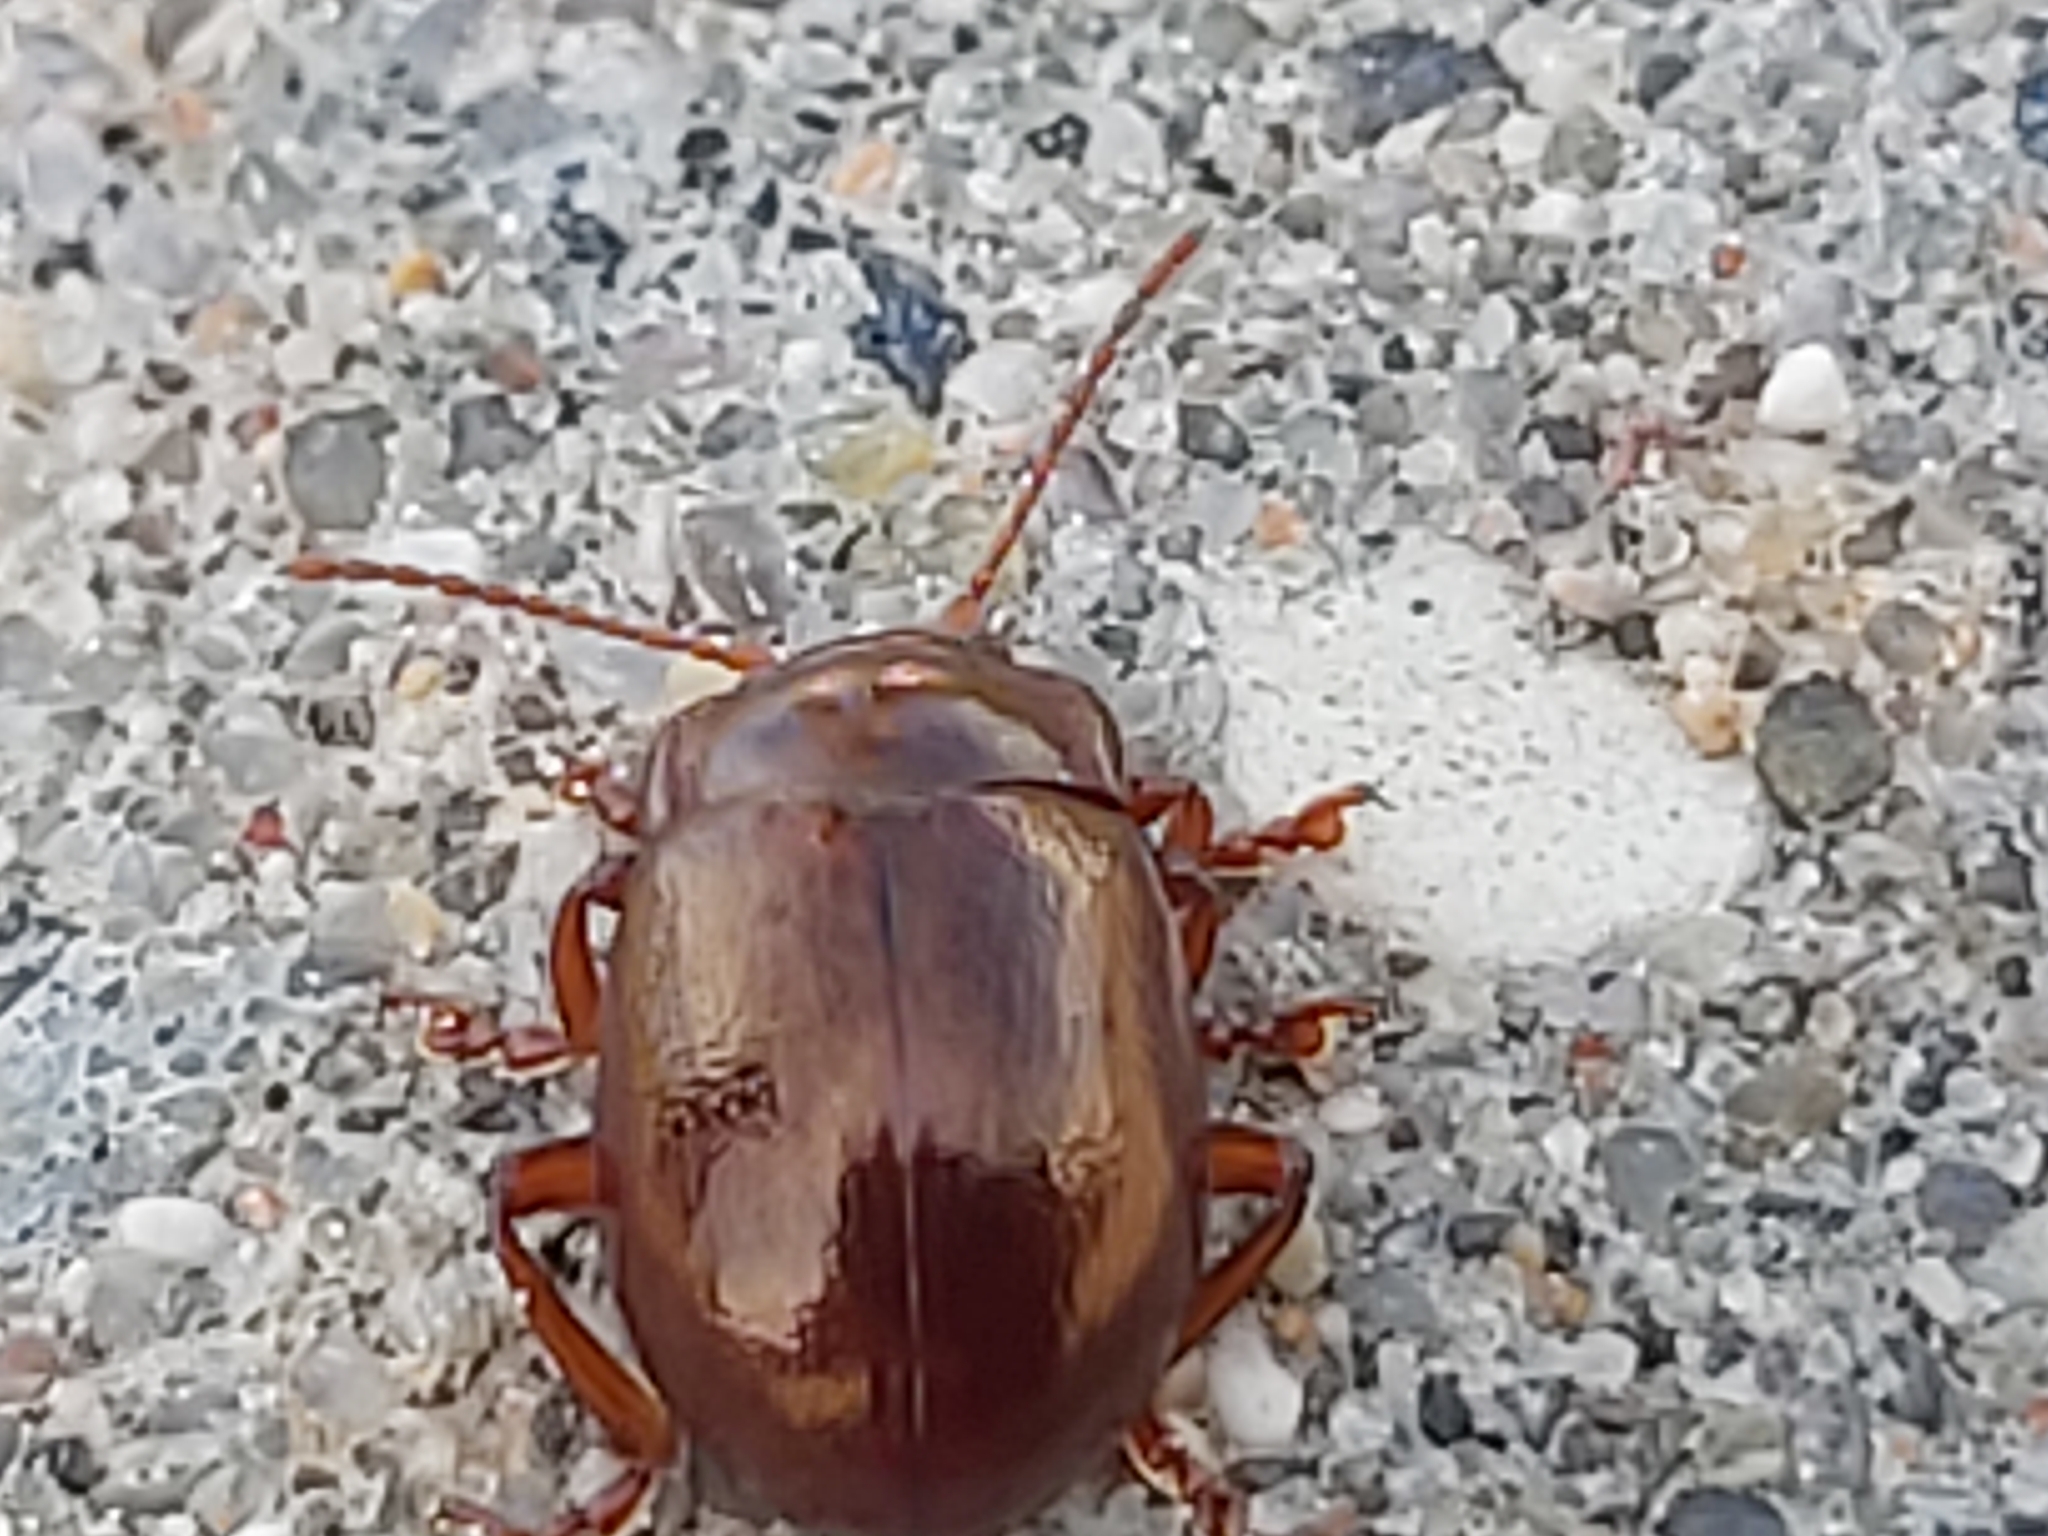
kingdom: Animalia
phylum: Arthropoda
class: Insecta
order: Coleoptera
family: Chrysomelidae
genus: Chrysolina
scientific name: Chrysolina staphylaea
